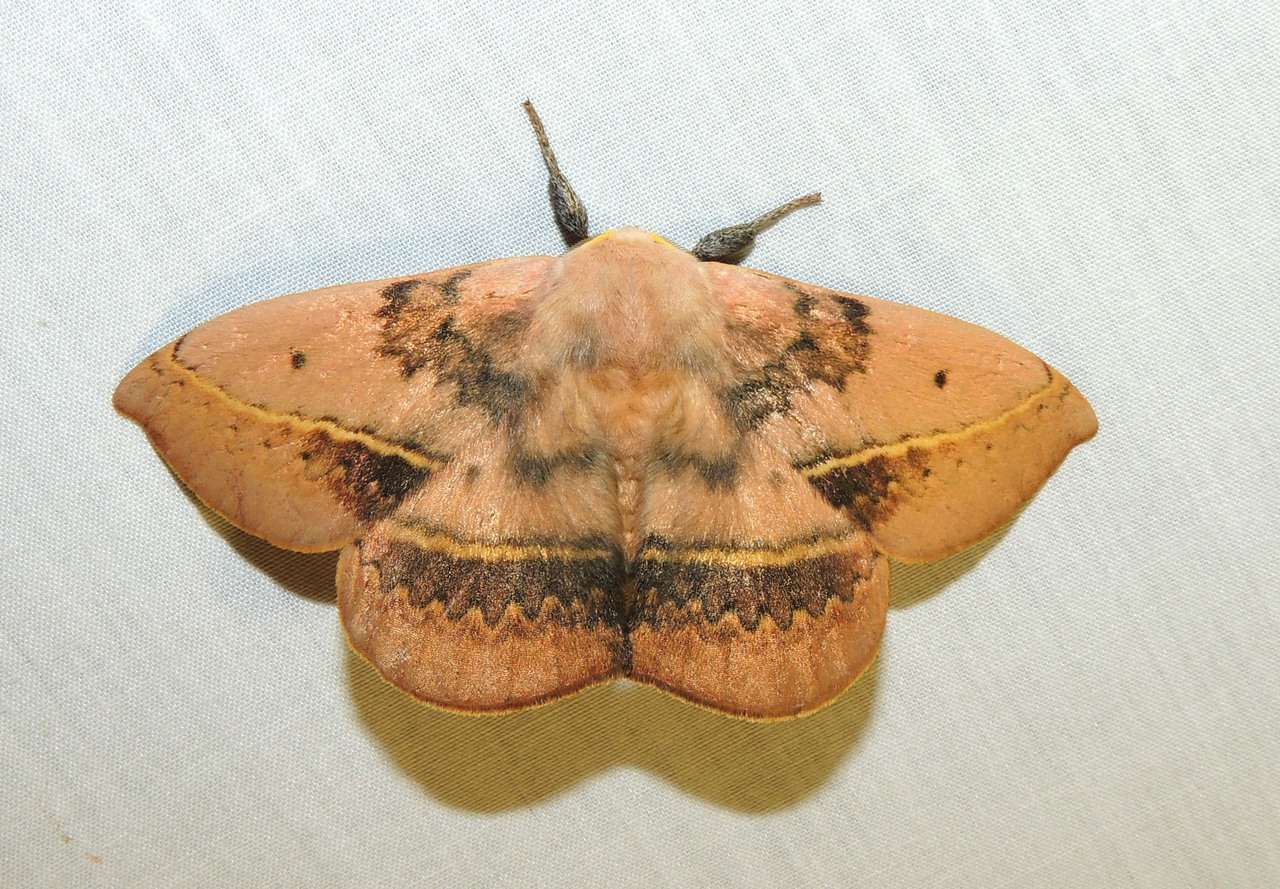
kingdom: Animalia
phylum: Arthropoda
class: Insecta
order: Lepidoptera
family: Anthelidae
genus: Anthela
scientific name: Anthela varia
